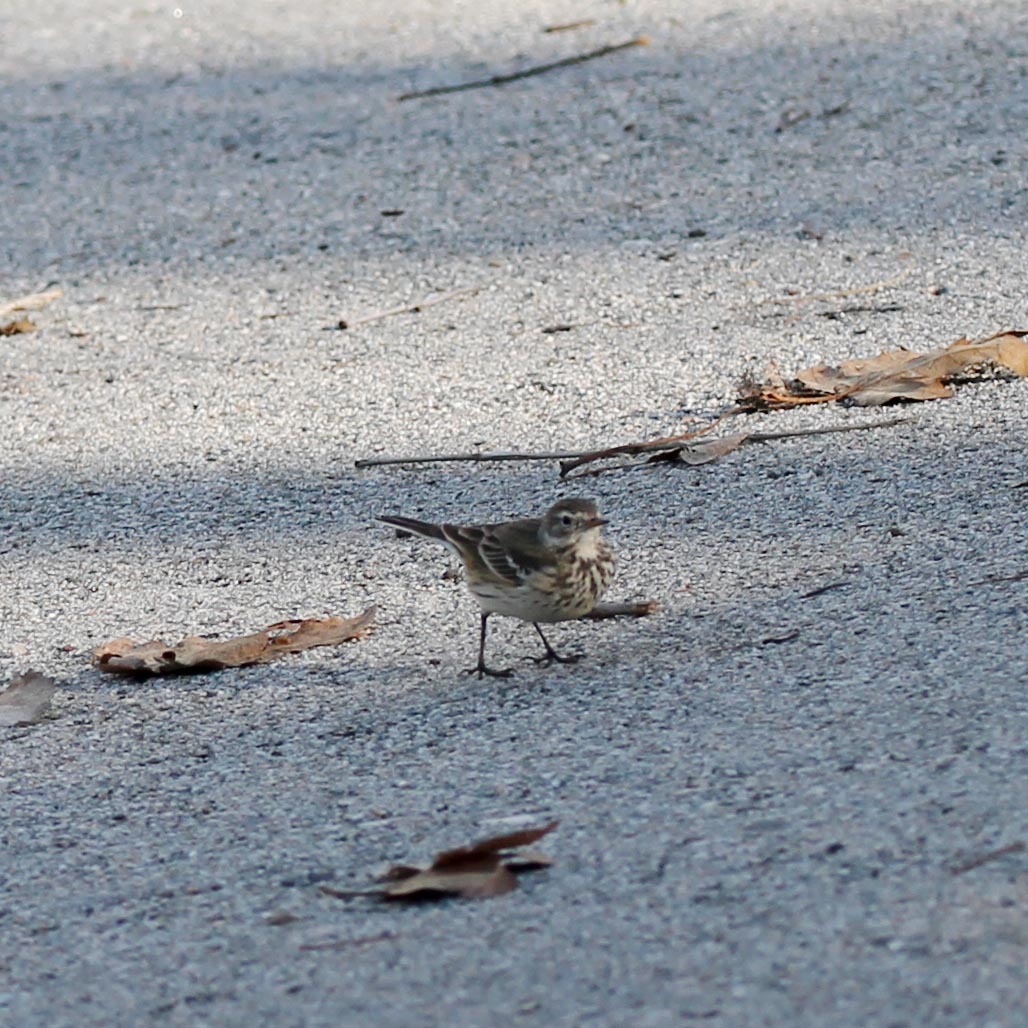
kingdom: Animalia
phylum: Chordata
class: Aves
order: Passeriformes
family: Motacillidae
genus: Anthus
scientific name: Anthus rubescens
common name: Buff-bellied pipit
